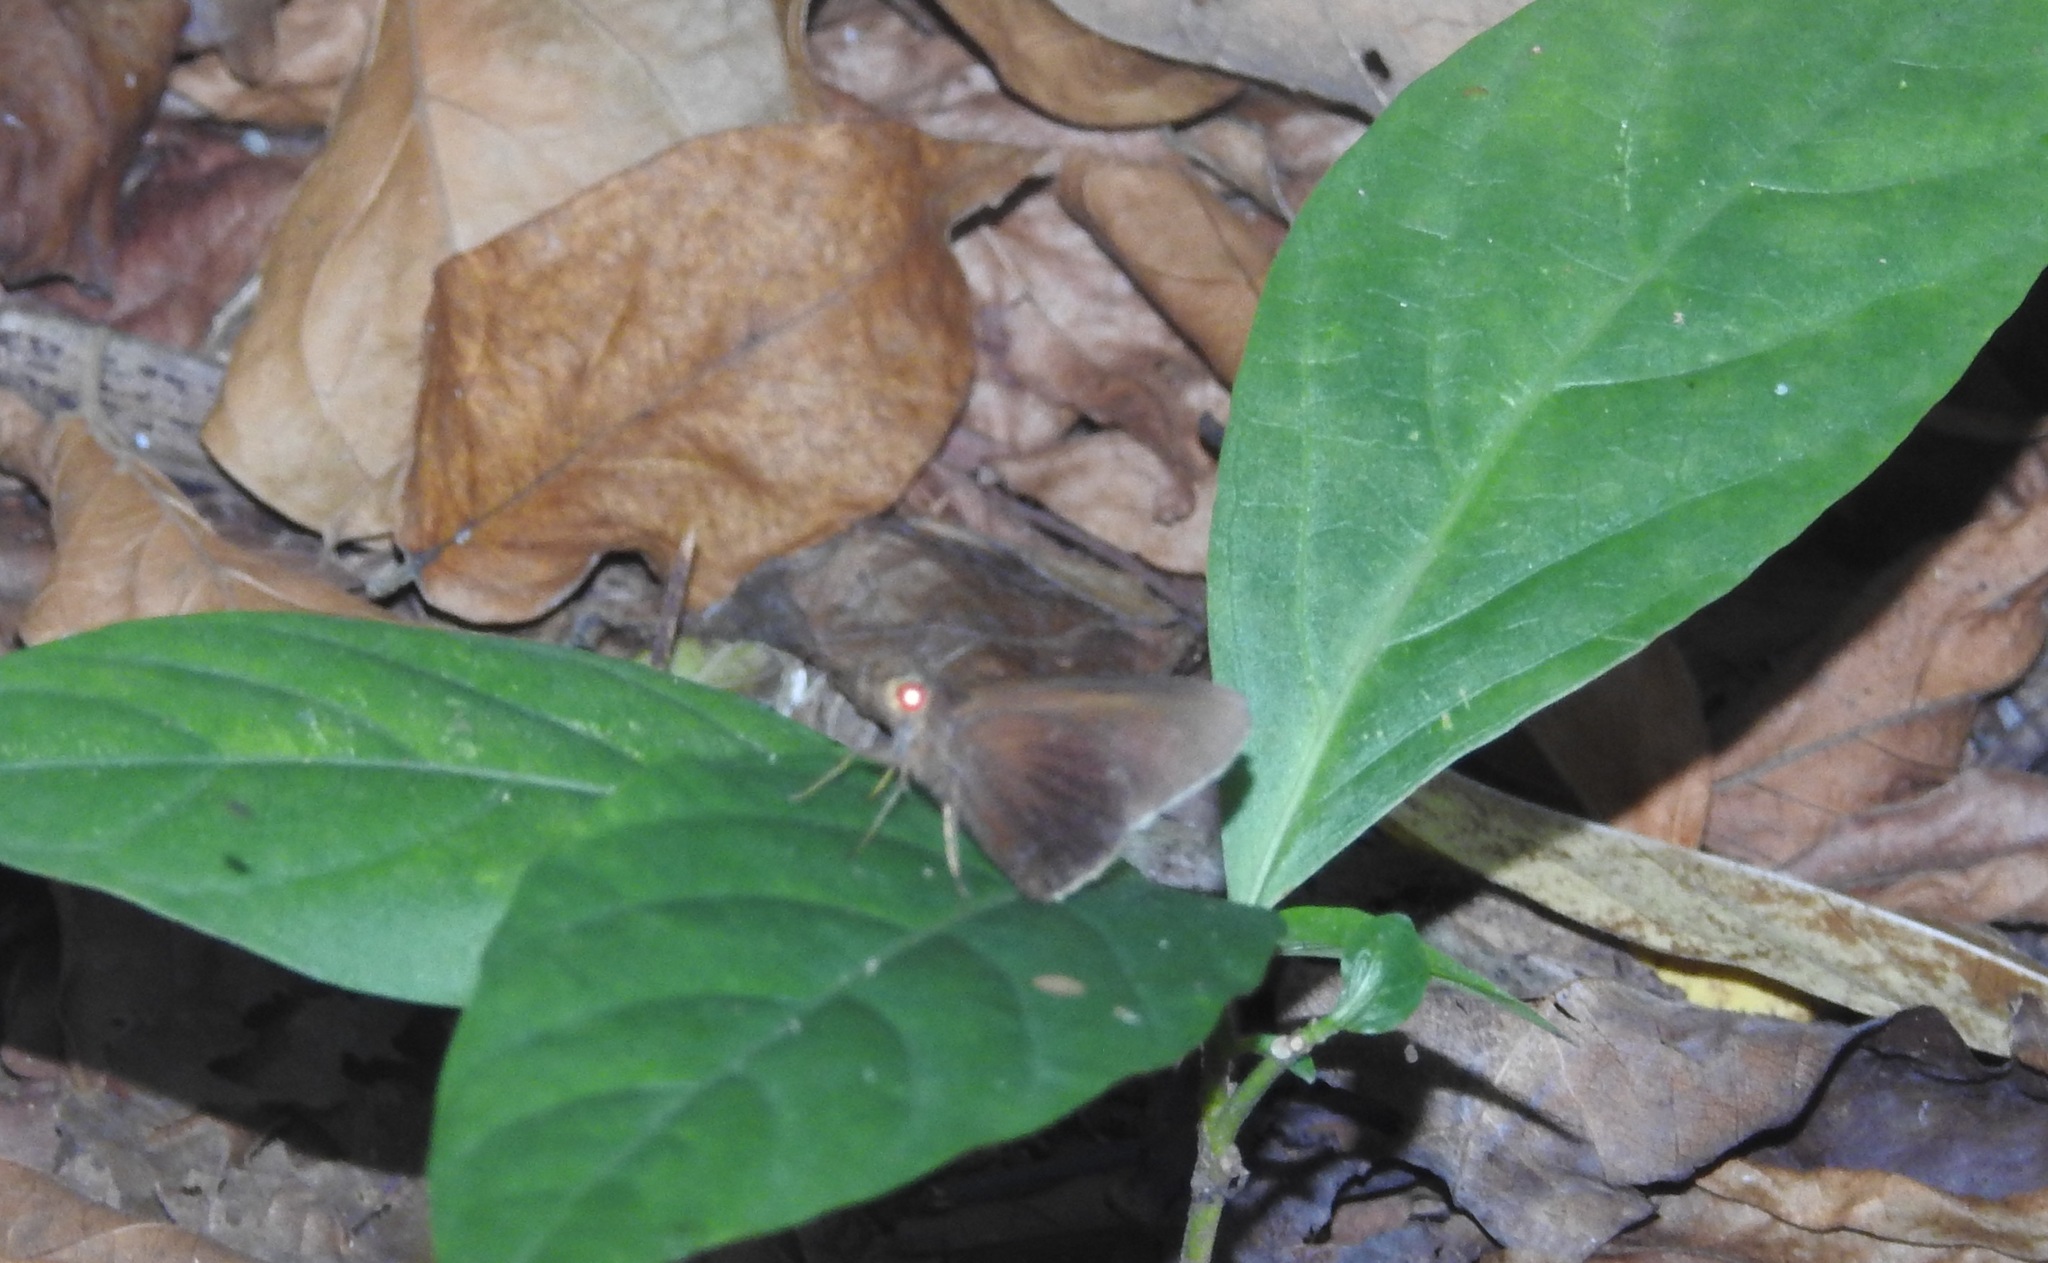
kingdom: Animalia
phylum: Arthropoda
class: Insecta
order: Lepidoptera
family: Hesperiidae
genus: Matapa
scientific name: Matapa aria
